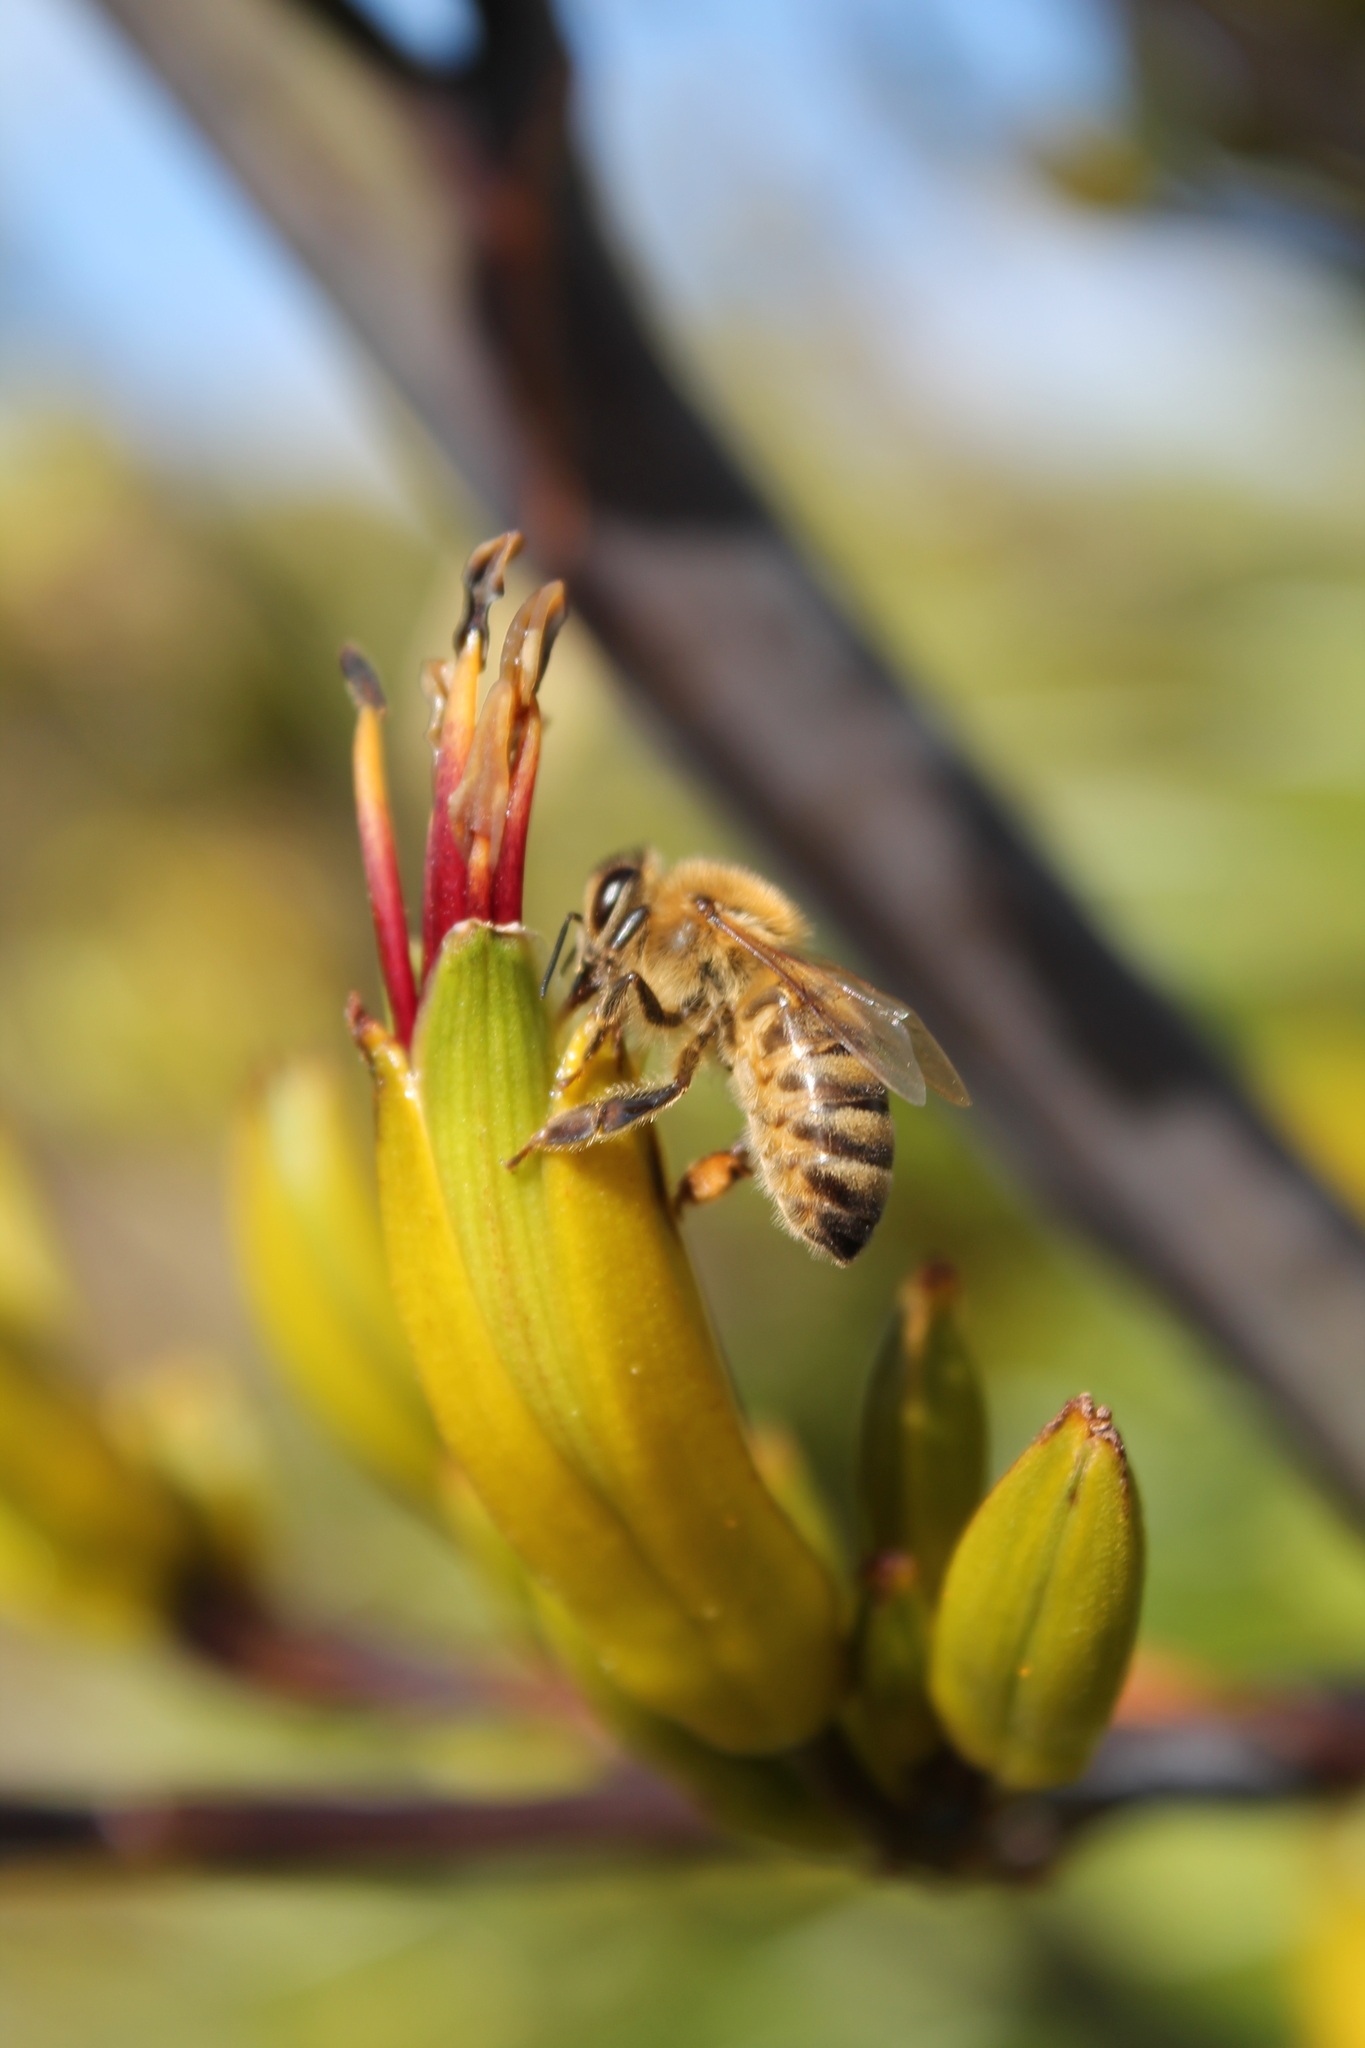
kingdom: Animalia
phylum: Arthropoda
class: Insecta
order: Hymenoptera
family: Apidae
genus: Apis
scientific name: Apis mellifera
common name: Honey bee
